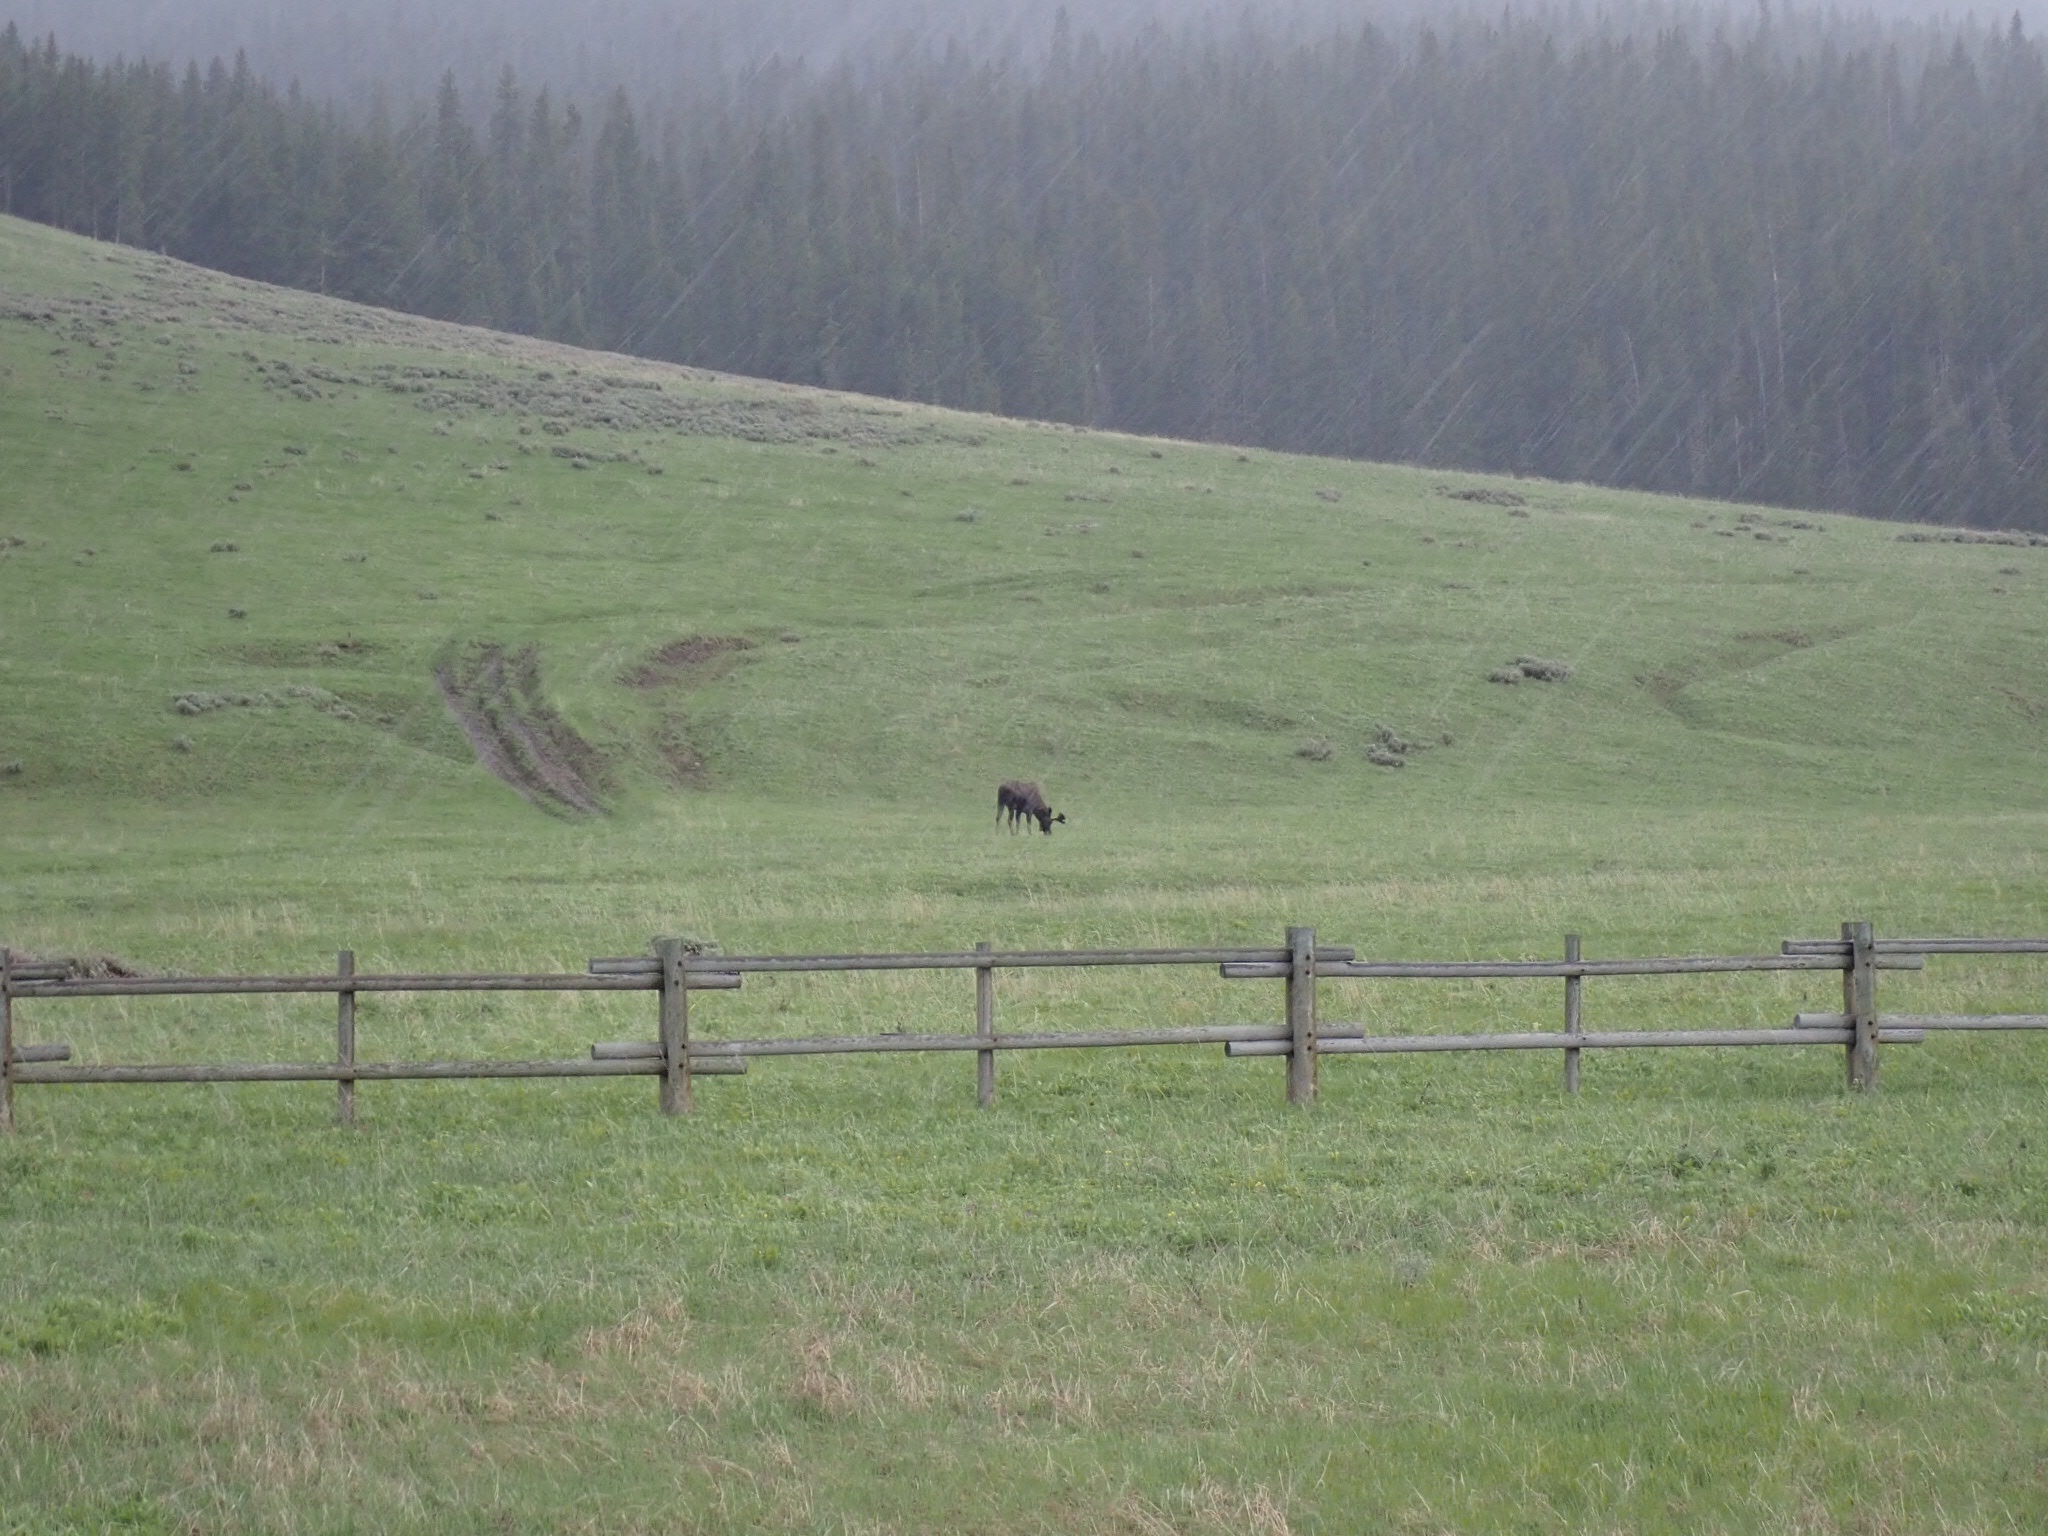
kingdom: Animalia
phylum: Chordata
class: Mammalia
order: Artiodactyla
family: Cervidae
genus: Alces
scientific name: Alces alces
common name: Moose
